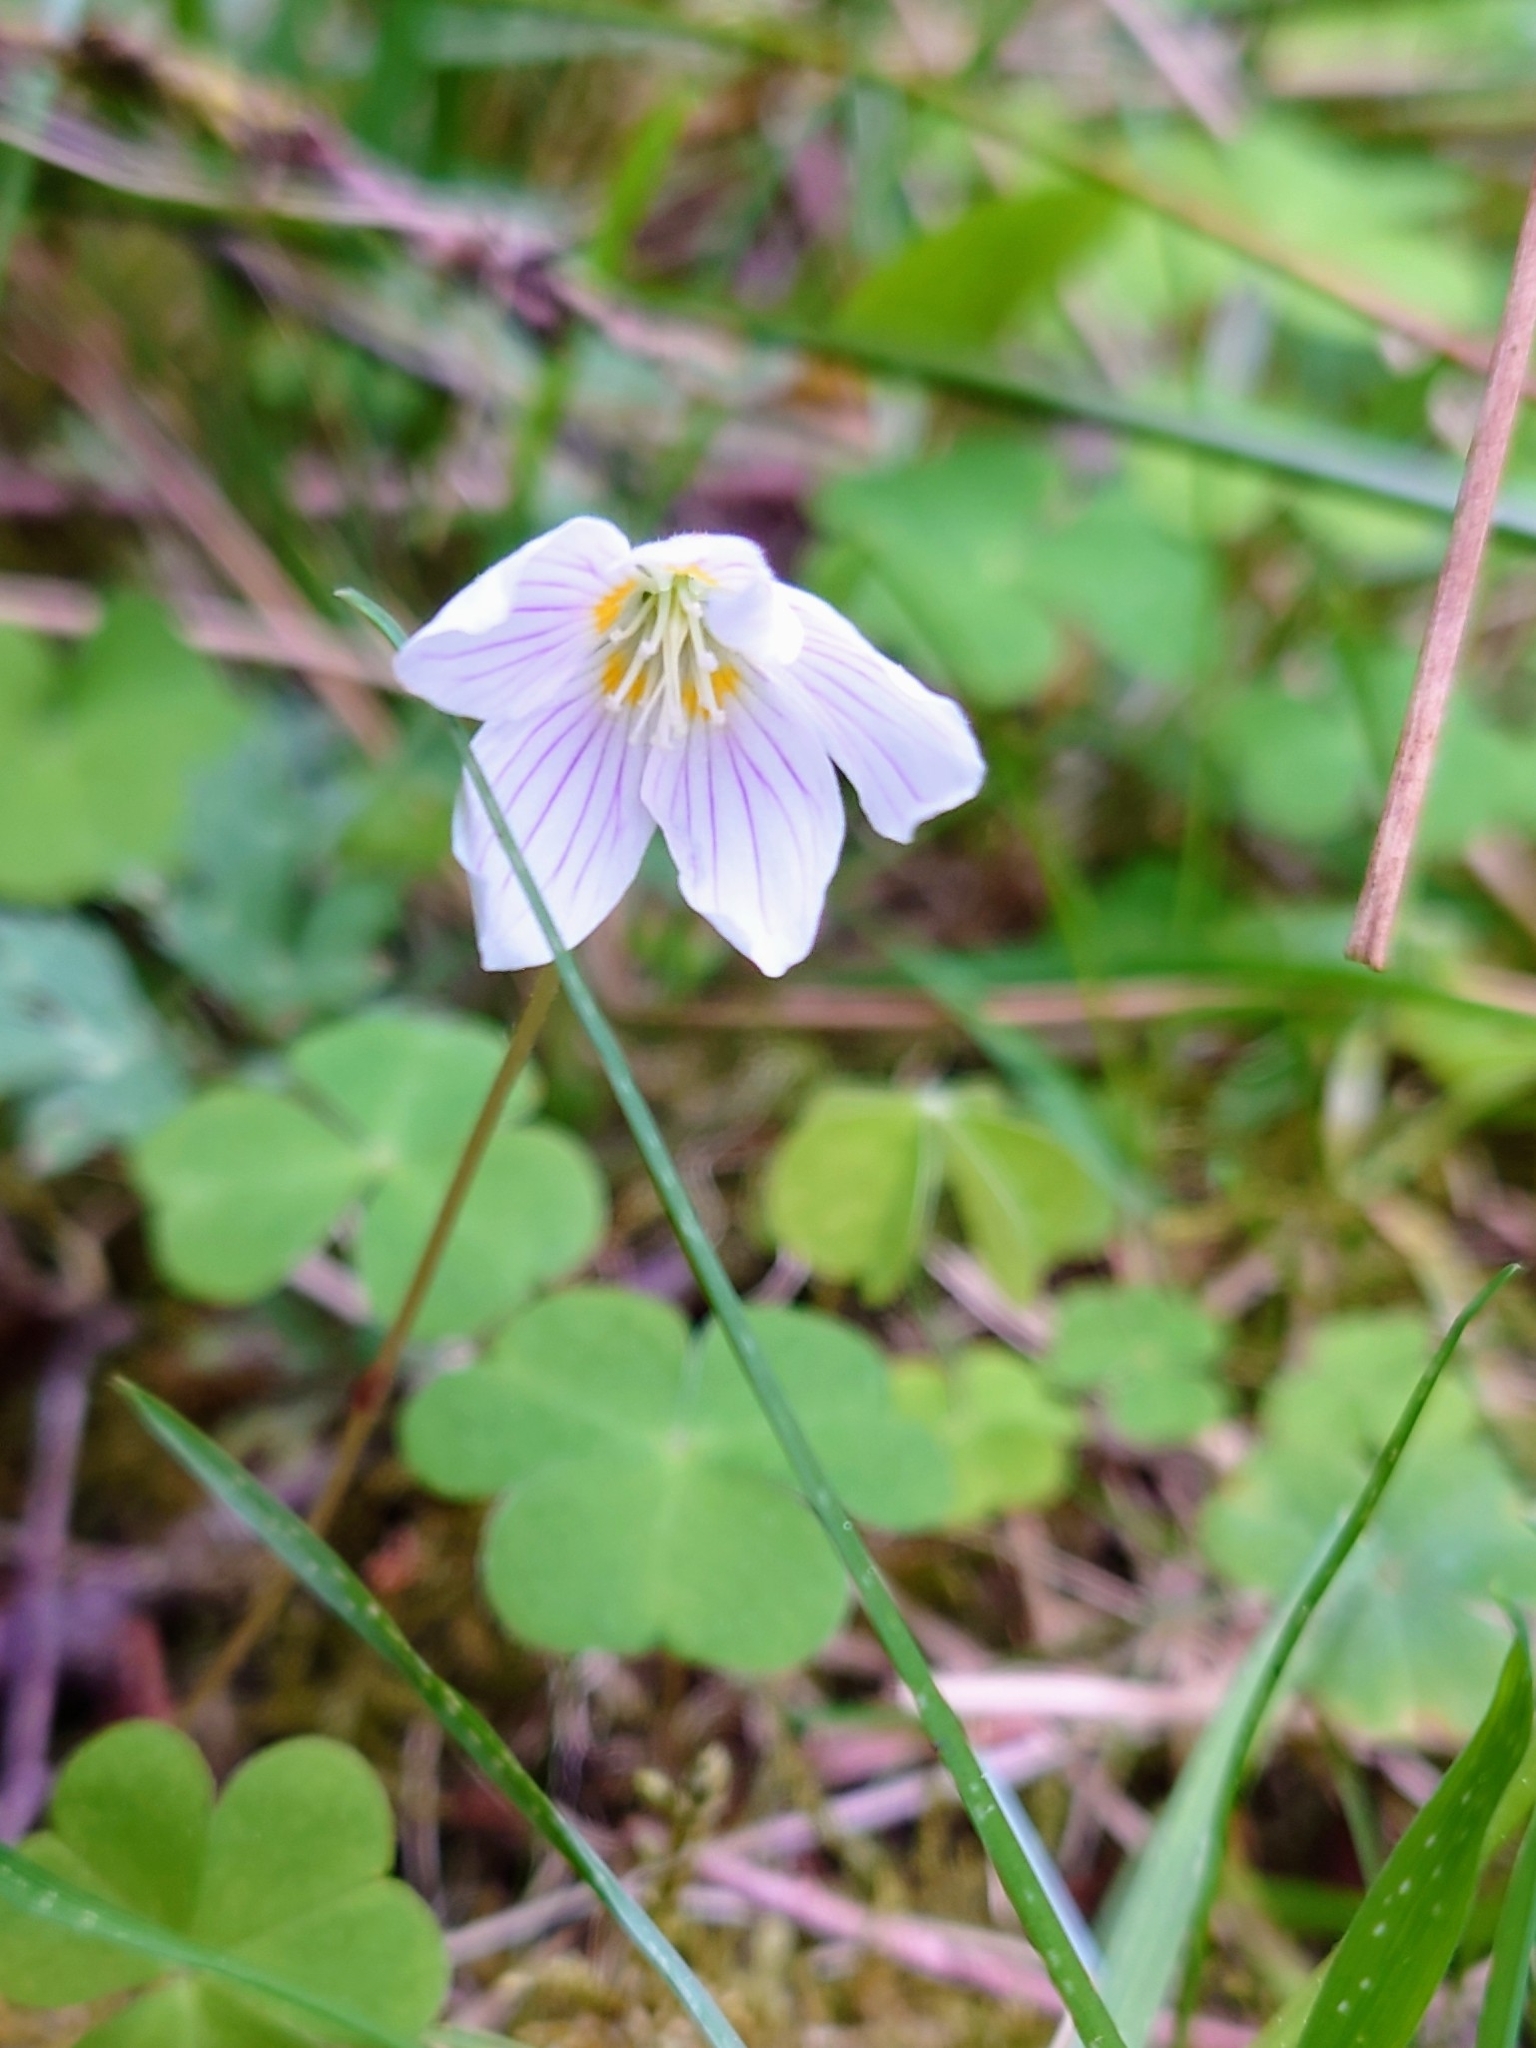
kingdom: Plantae
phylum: Tracheophyta
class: Magnoliopsida
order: Oxalidales
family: Oxalidaceae
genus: Oxalis
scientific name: Oxalis acetosella
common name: Wood-sorrel
